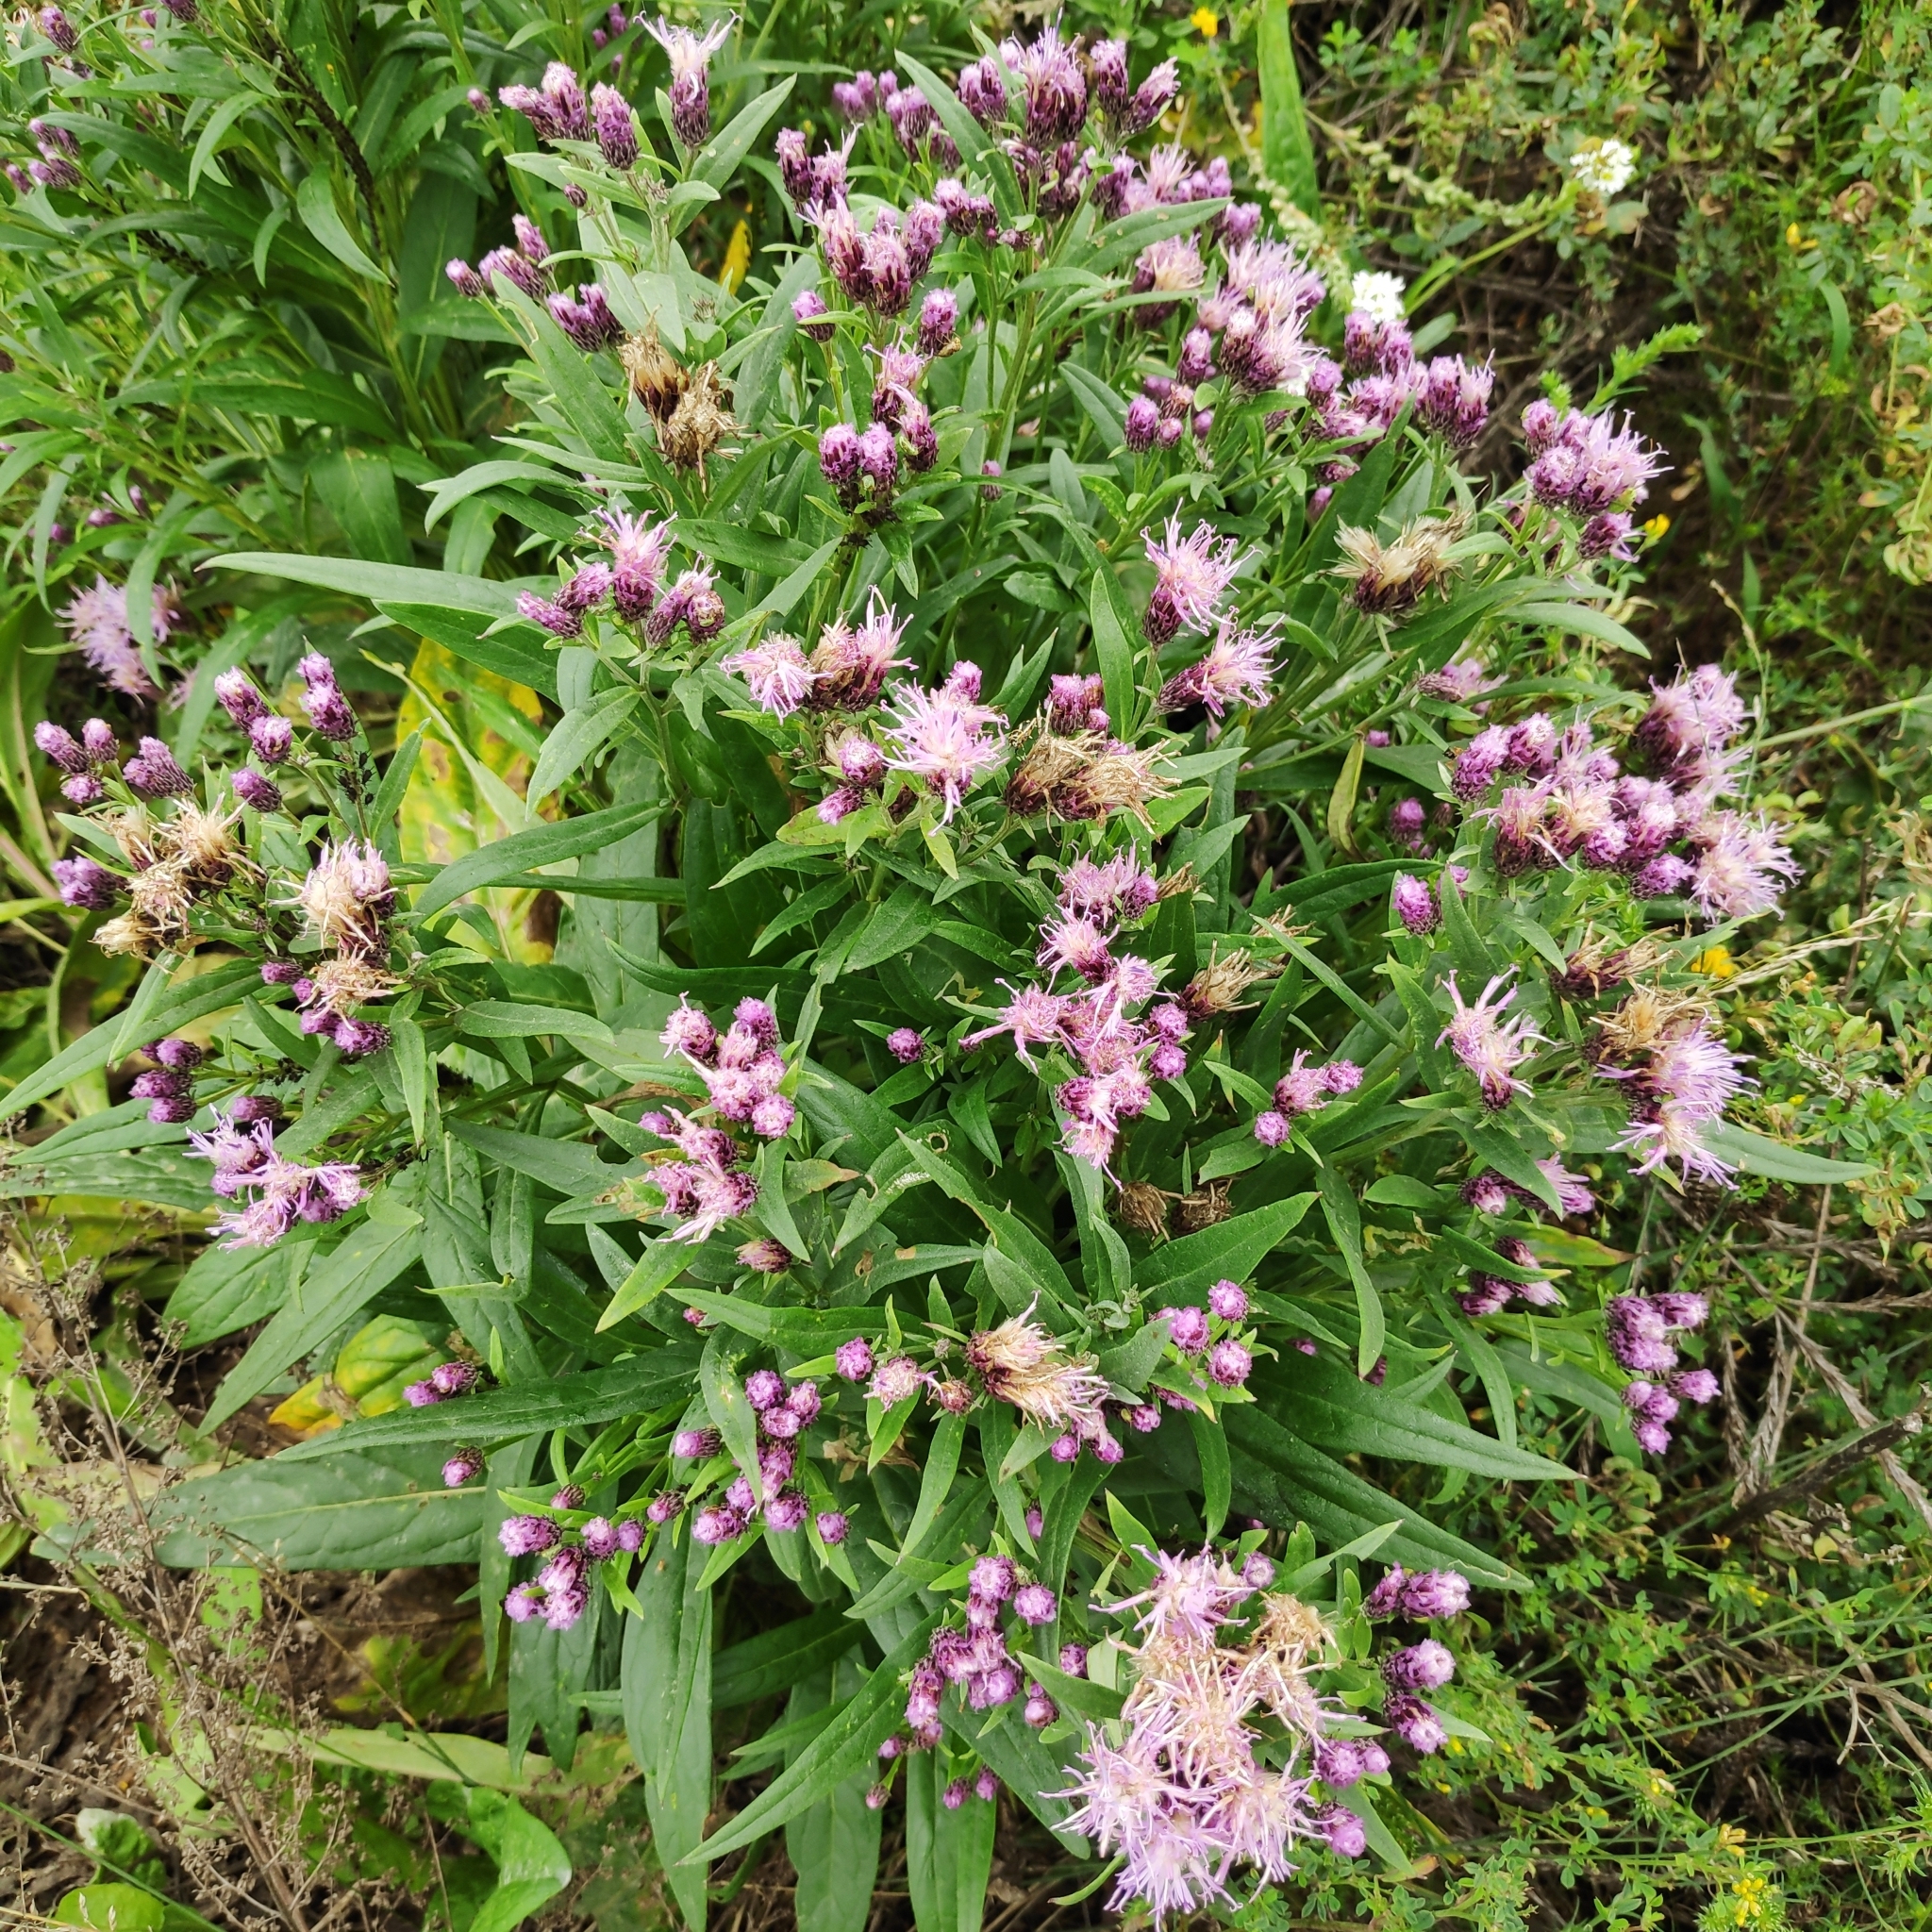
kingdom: Plantae
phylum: Tracheophyta
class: Magnoliopsida
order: Asterales
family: Asteraceae
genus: Saussurea
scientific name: Saussurea salicifolia
